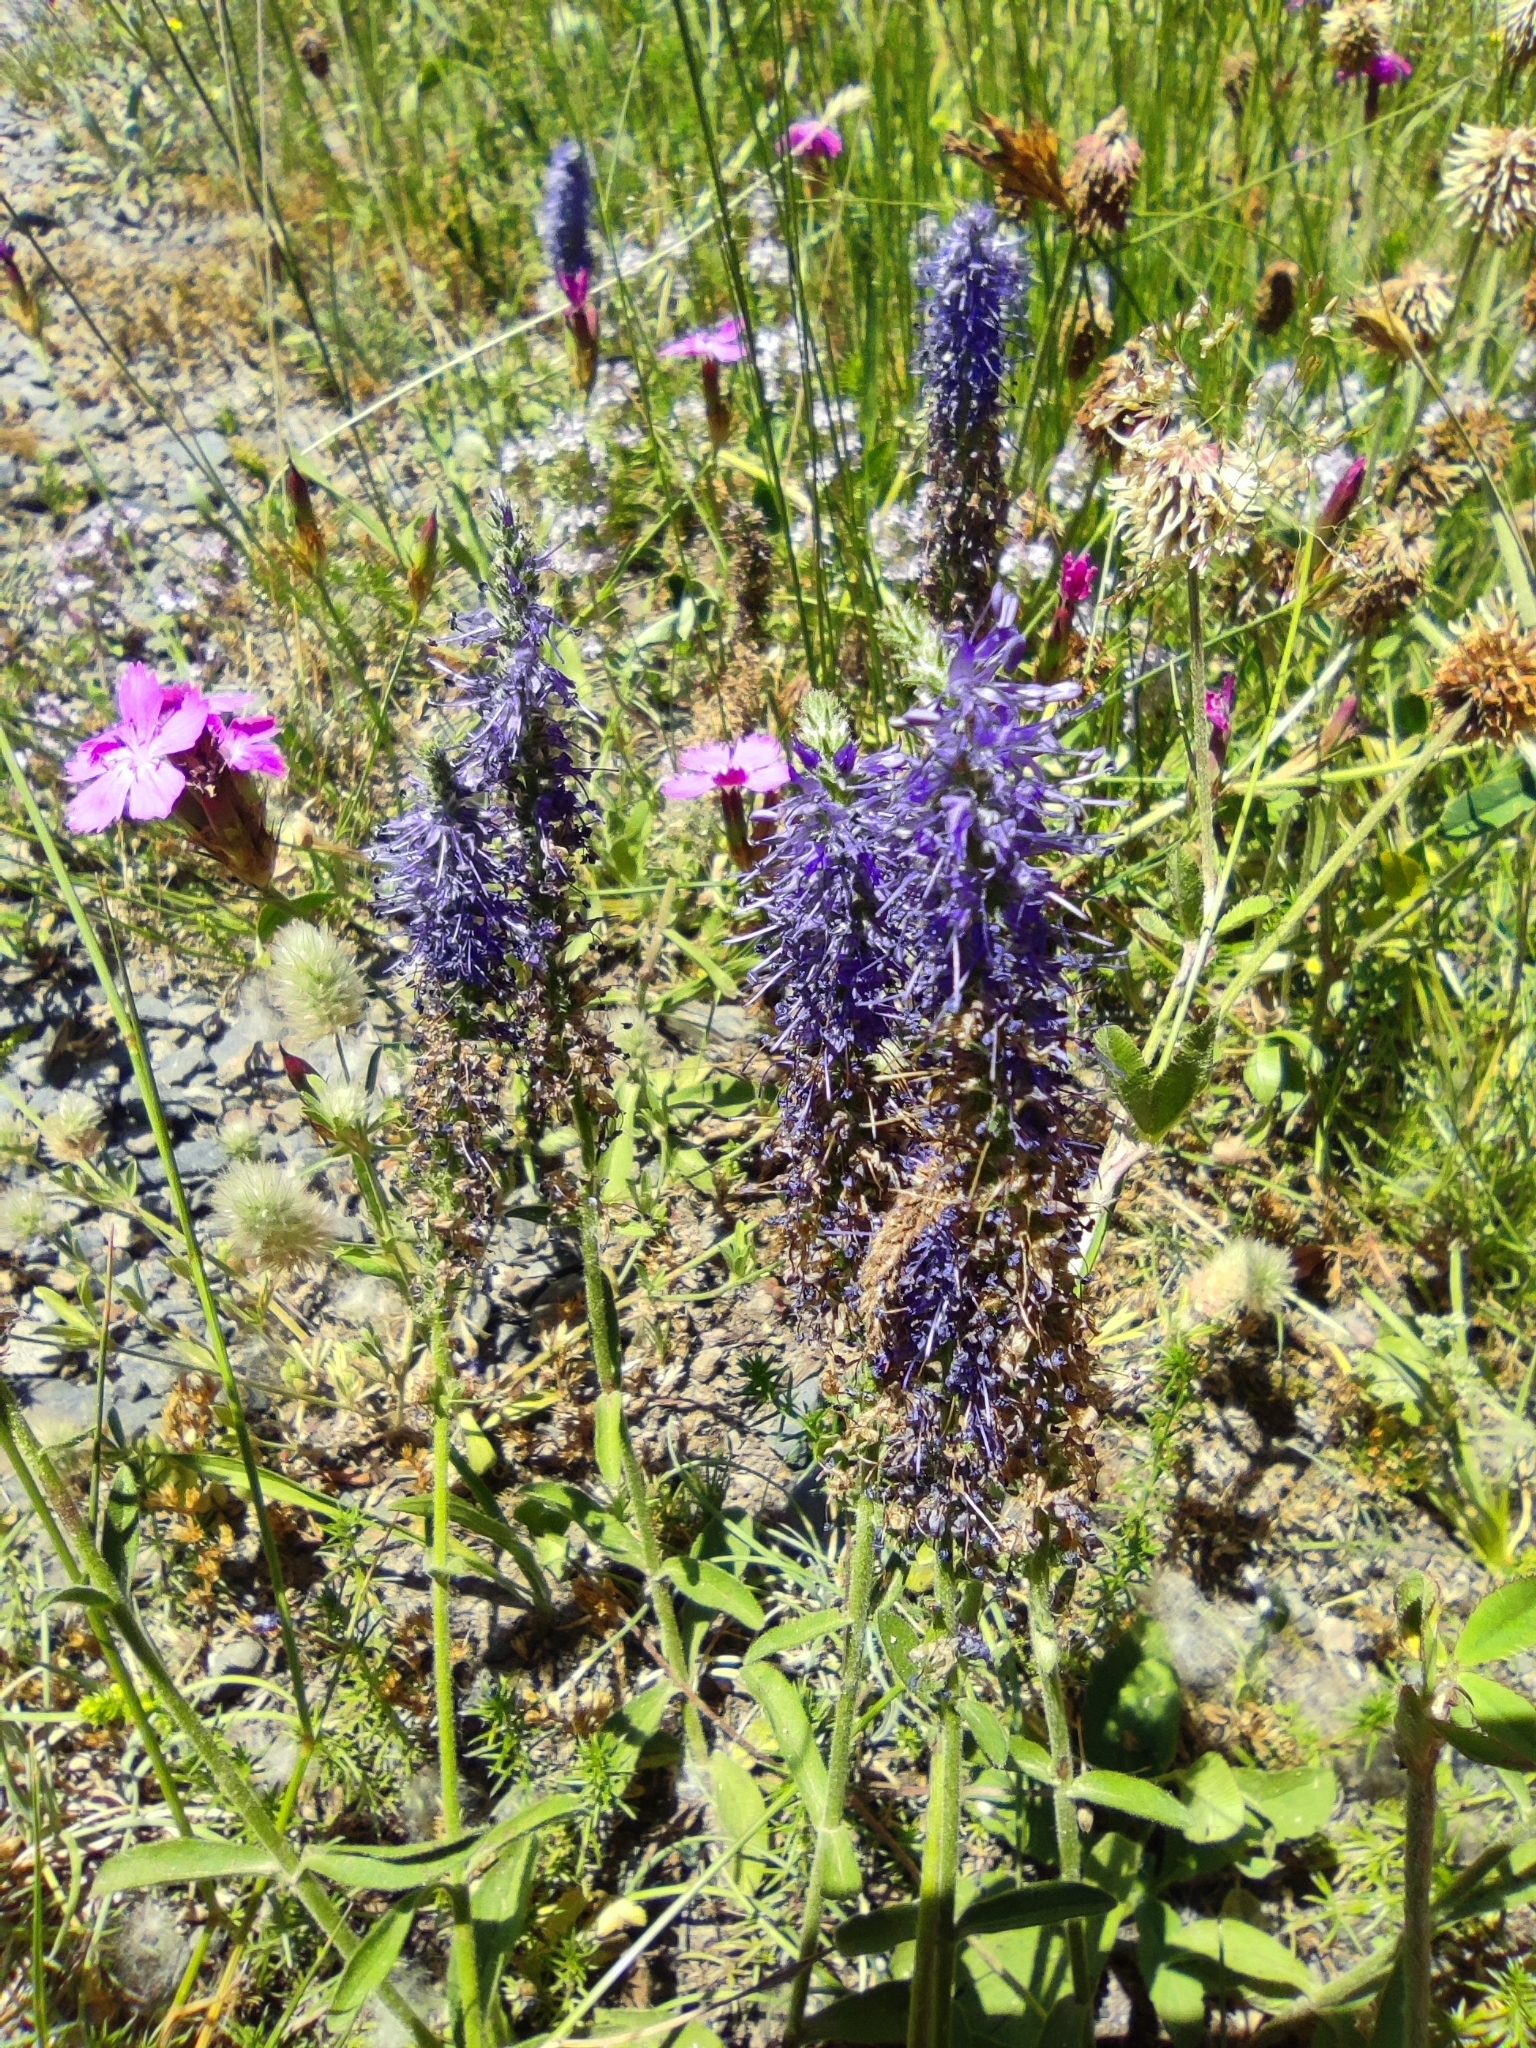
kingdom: Plantae
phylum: Tracheophyta
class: Magnoliopsida
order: Lamiales
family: Plantaginaceae
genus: Veronica
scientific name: Veronica spicata
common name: Spiked speedwell
